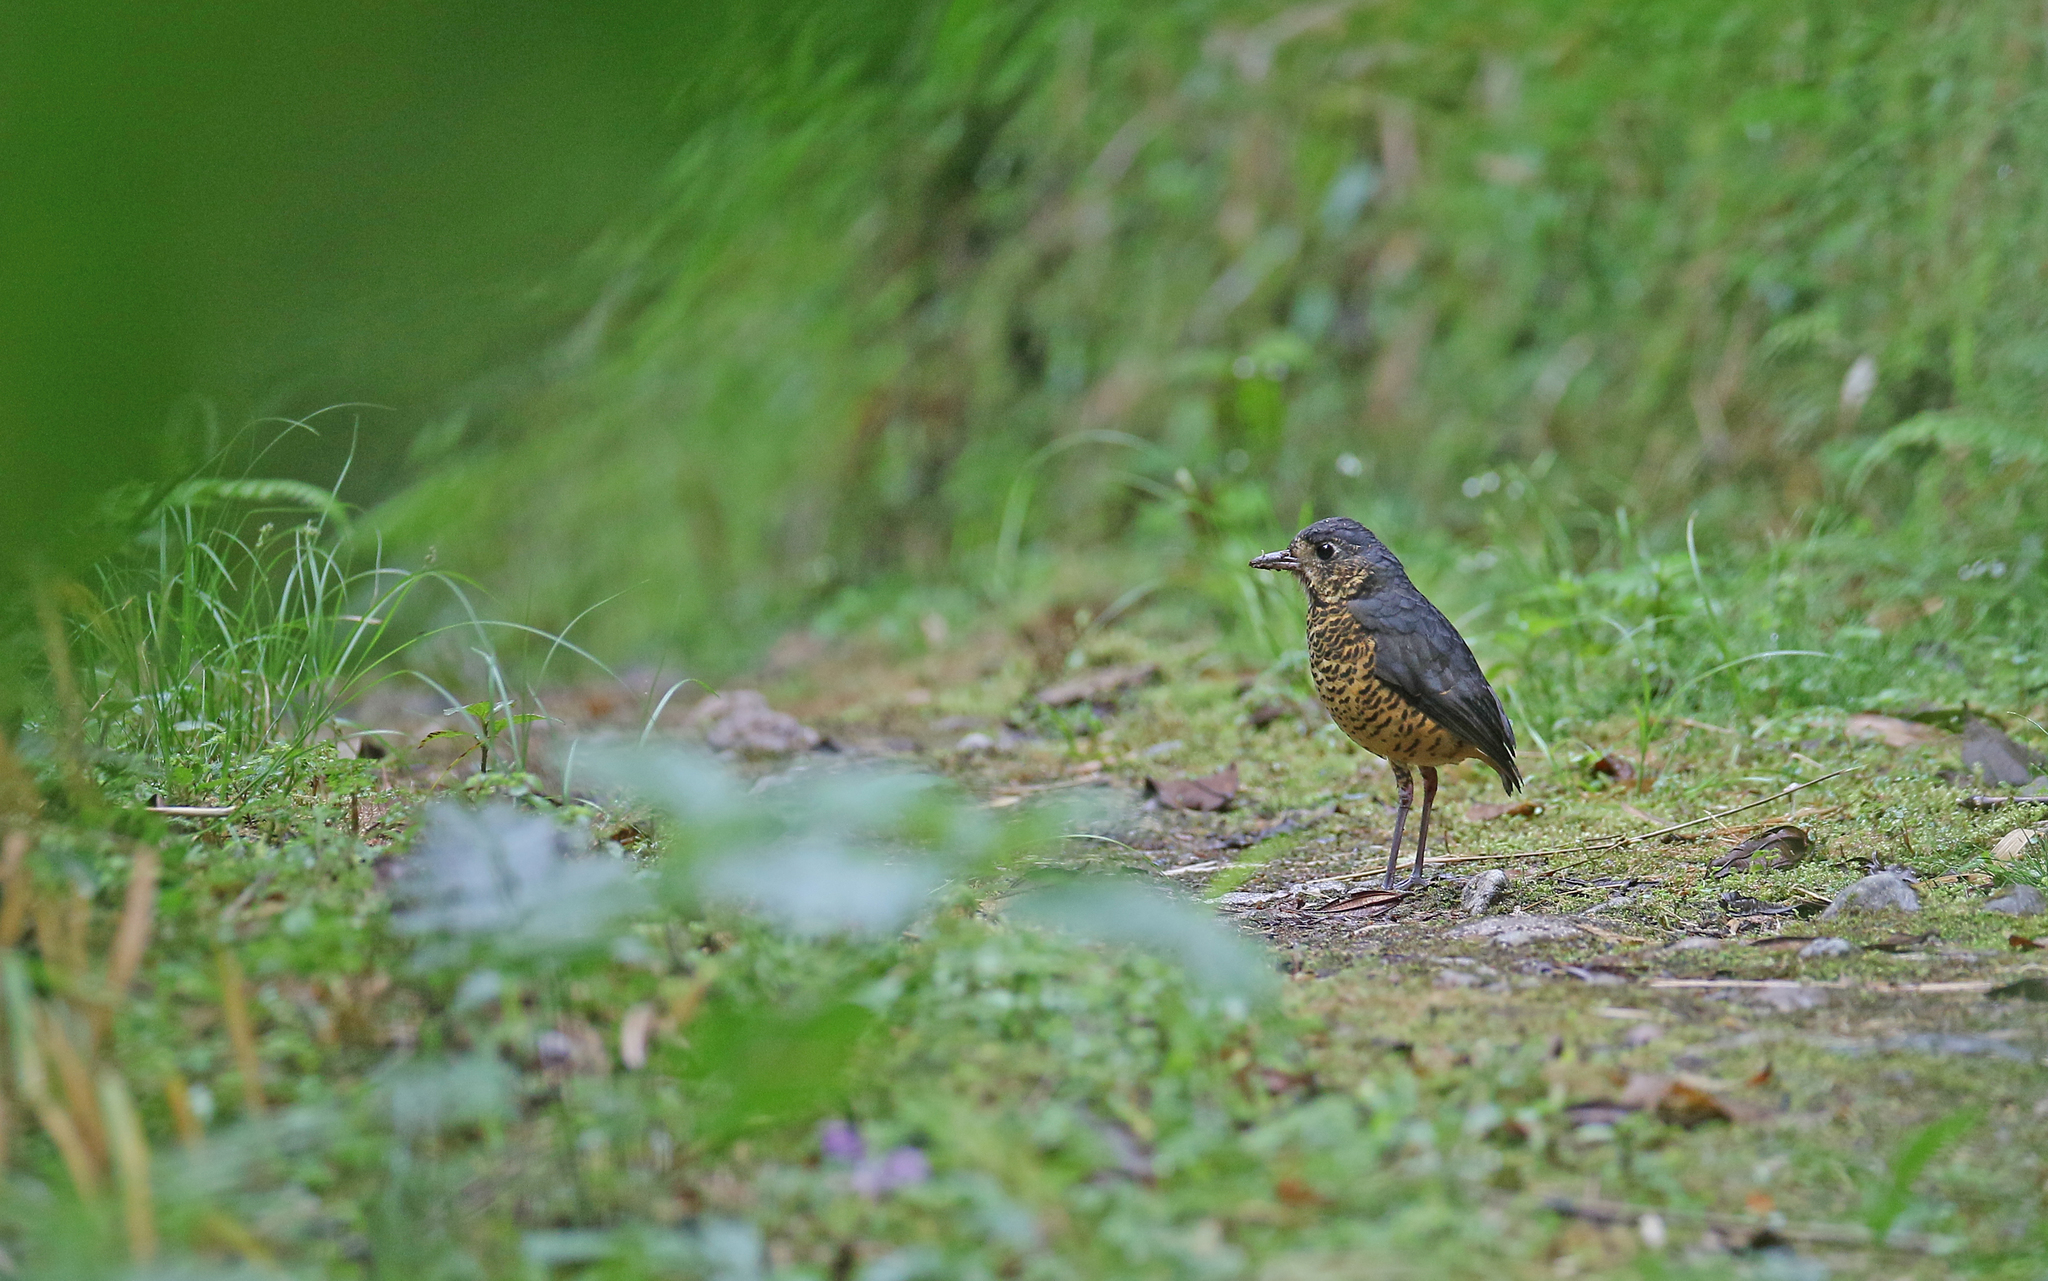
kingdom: Animalia
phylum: Chordata
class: Aves
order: Passeriformes
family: Grallariidae
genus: Grallaria
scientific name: Grallaria squamigera
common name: Undulated antpitta
